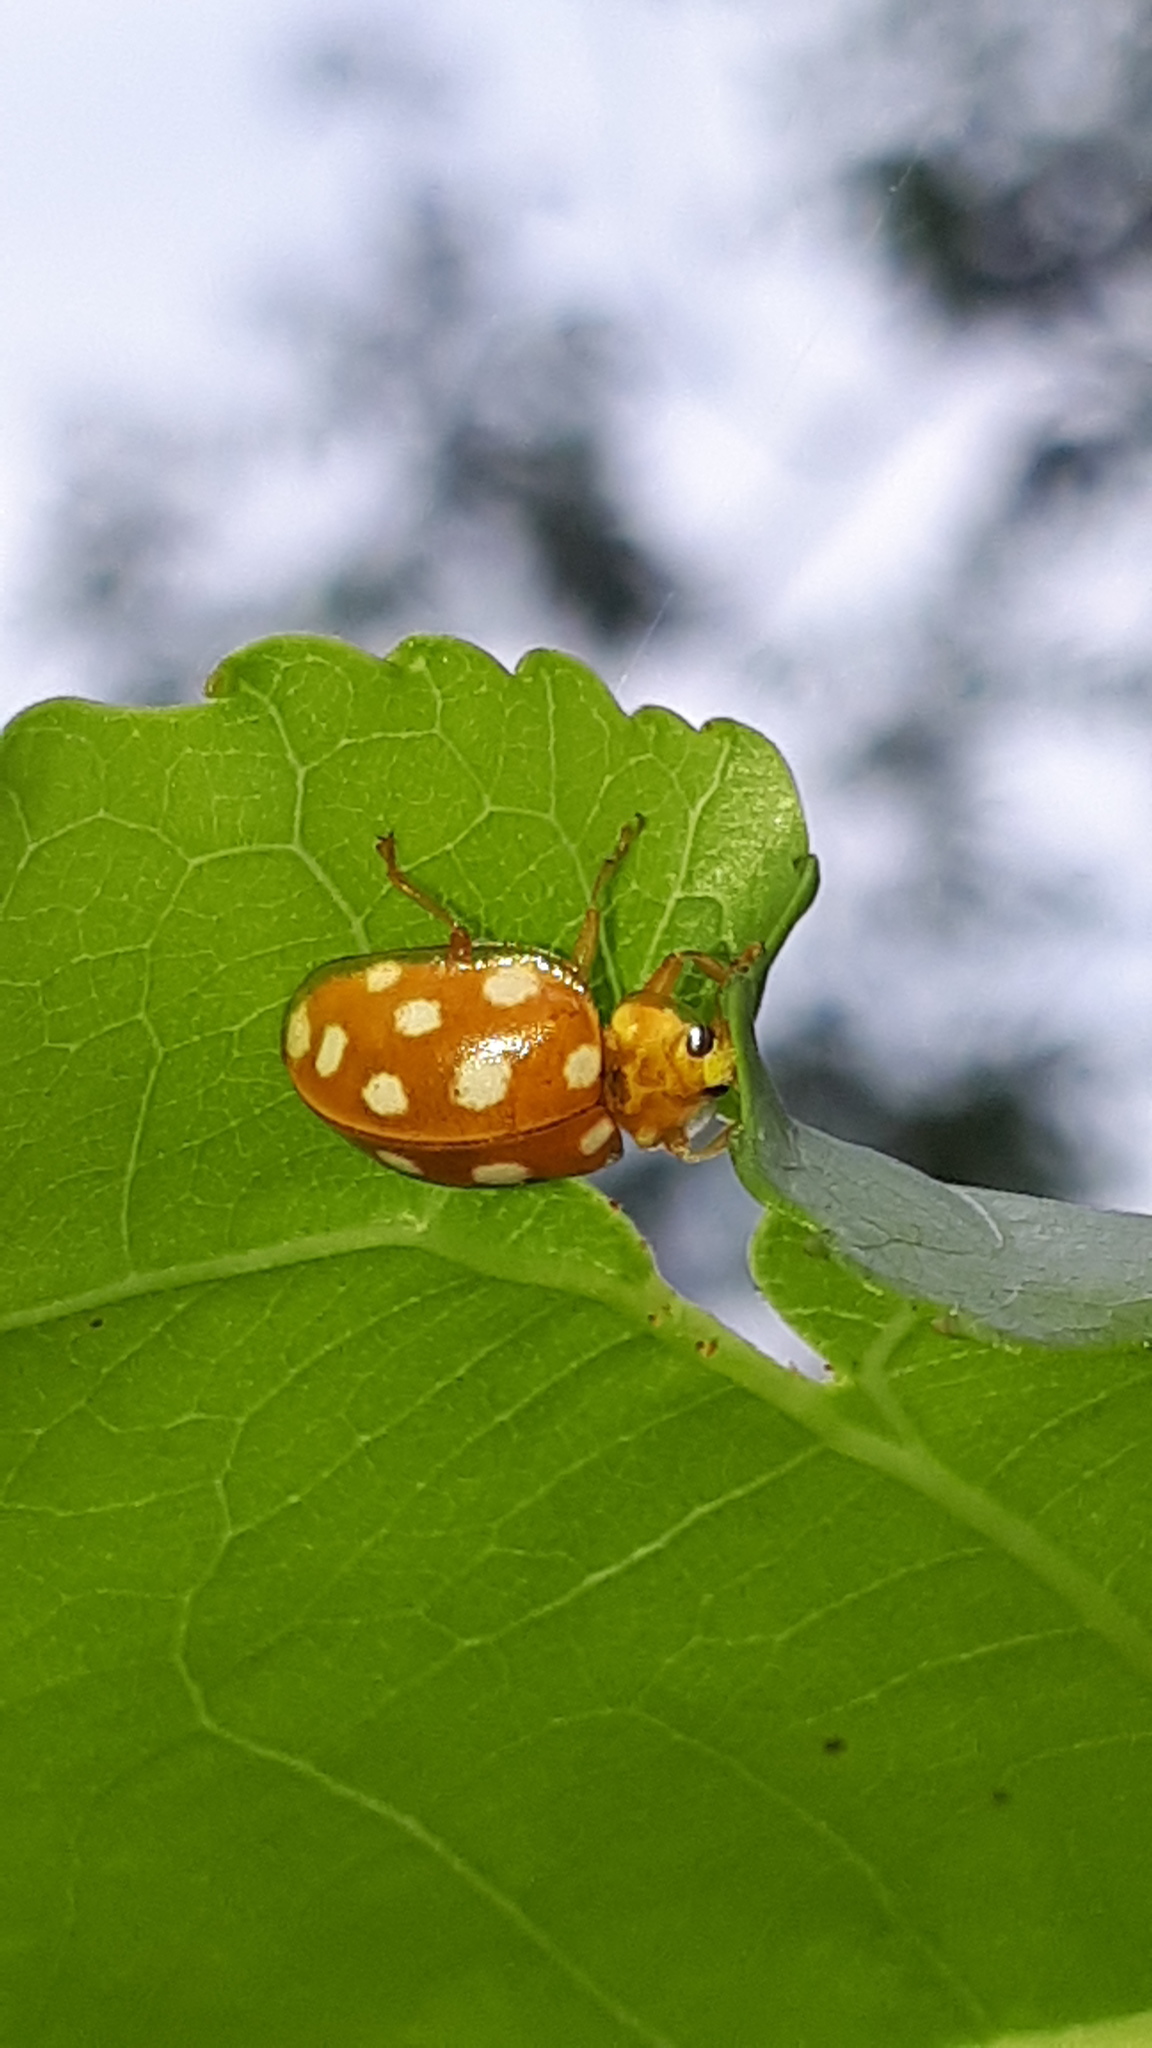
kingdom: Animalia
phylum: Arthropoda
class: Insecta
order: Coleoptera
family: Coccinellidae
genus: Halyzia
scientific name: Halyzia sedecimguttata
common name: Orange ladybird
